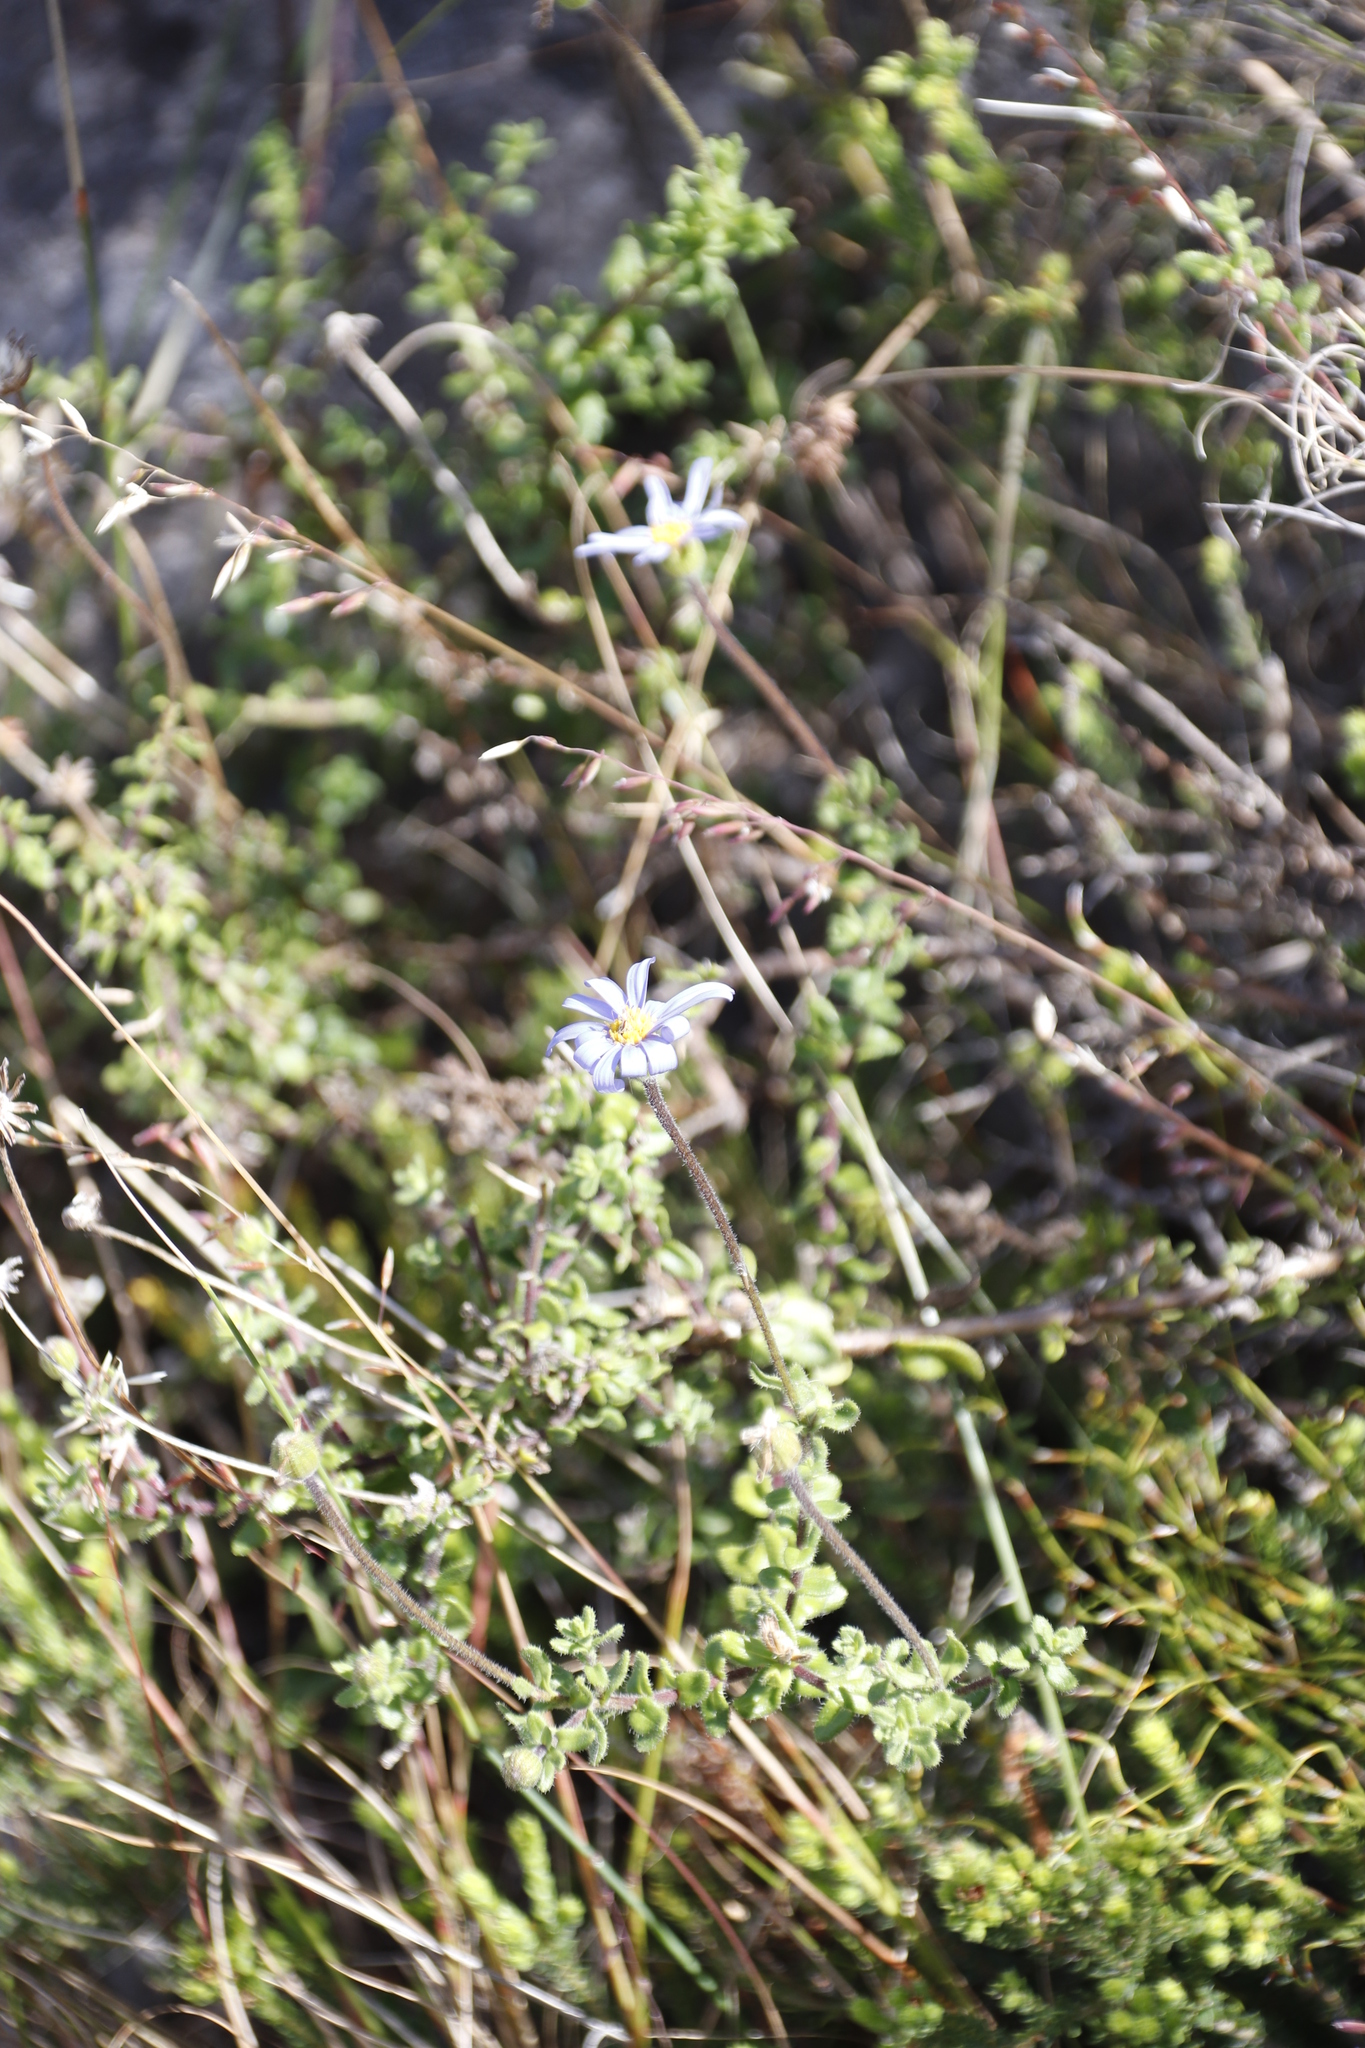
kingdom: Plantae
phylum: Tracheophyta
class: Magnoliopsida
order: Asterales
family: Asteraceae
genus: Felicia
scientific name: Felicia aethiopica
